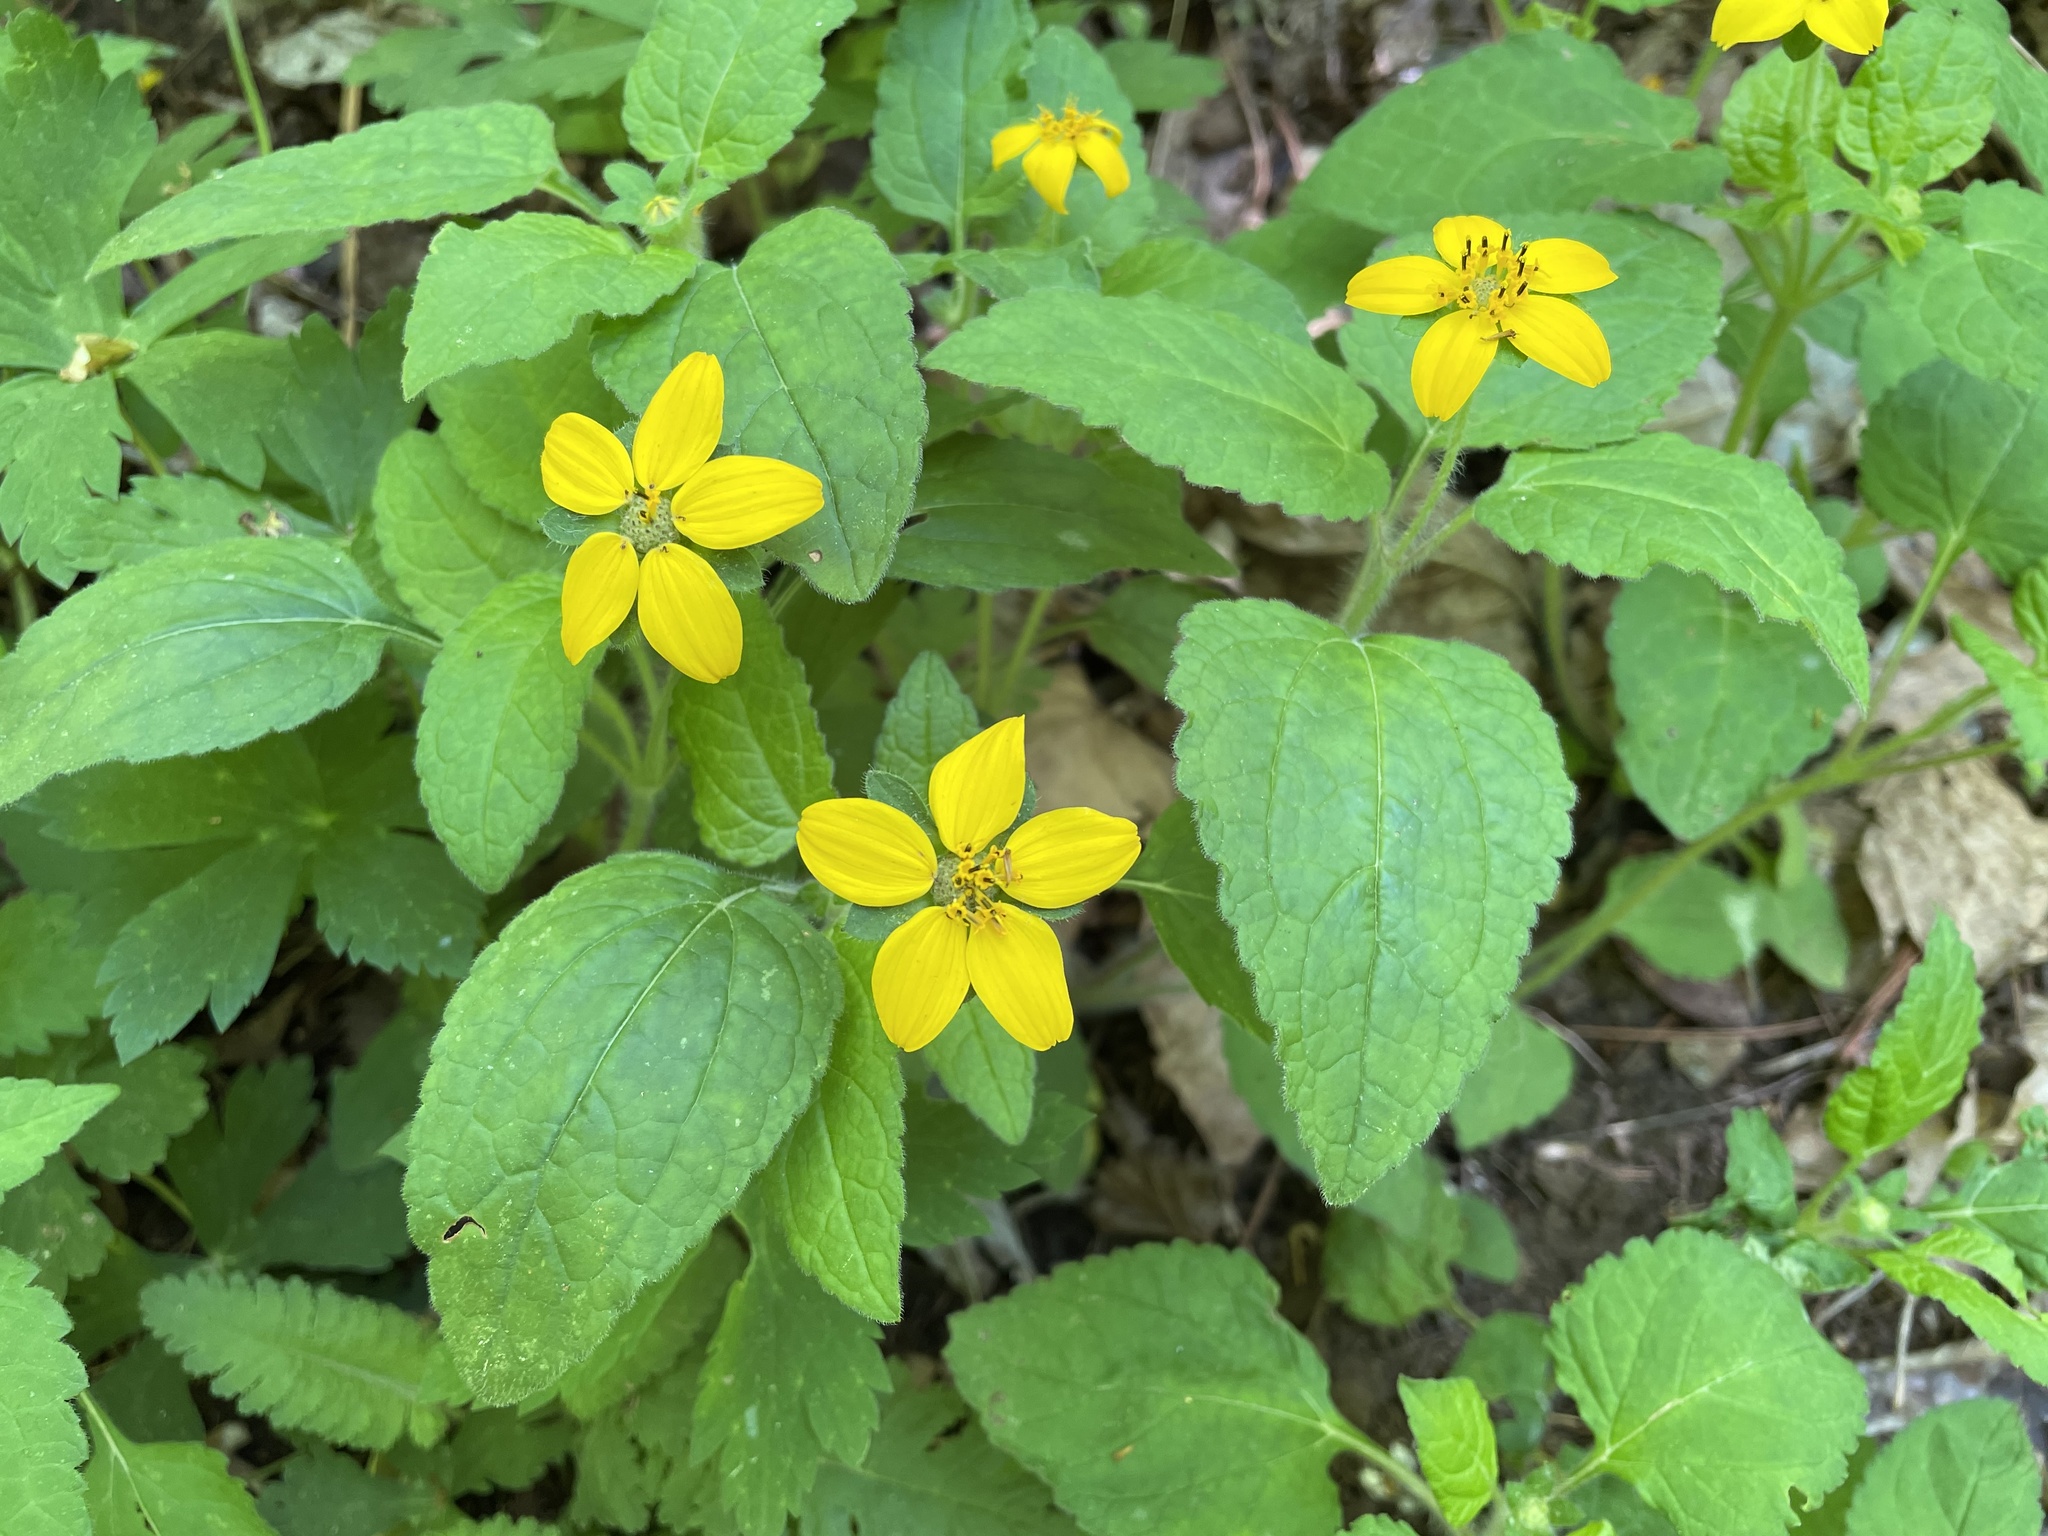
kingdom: Plantae
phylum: Tracheophyta
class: Magnoliopsida
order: Asterales
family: Asteraceae
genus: Chrysogonum
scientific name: Chrysogonum virginianum
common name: Golden-knee
